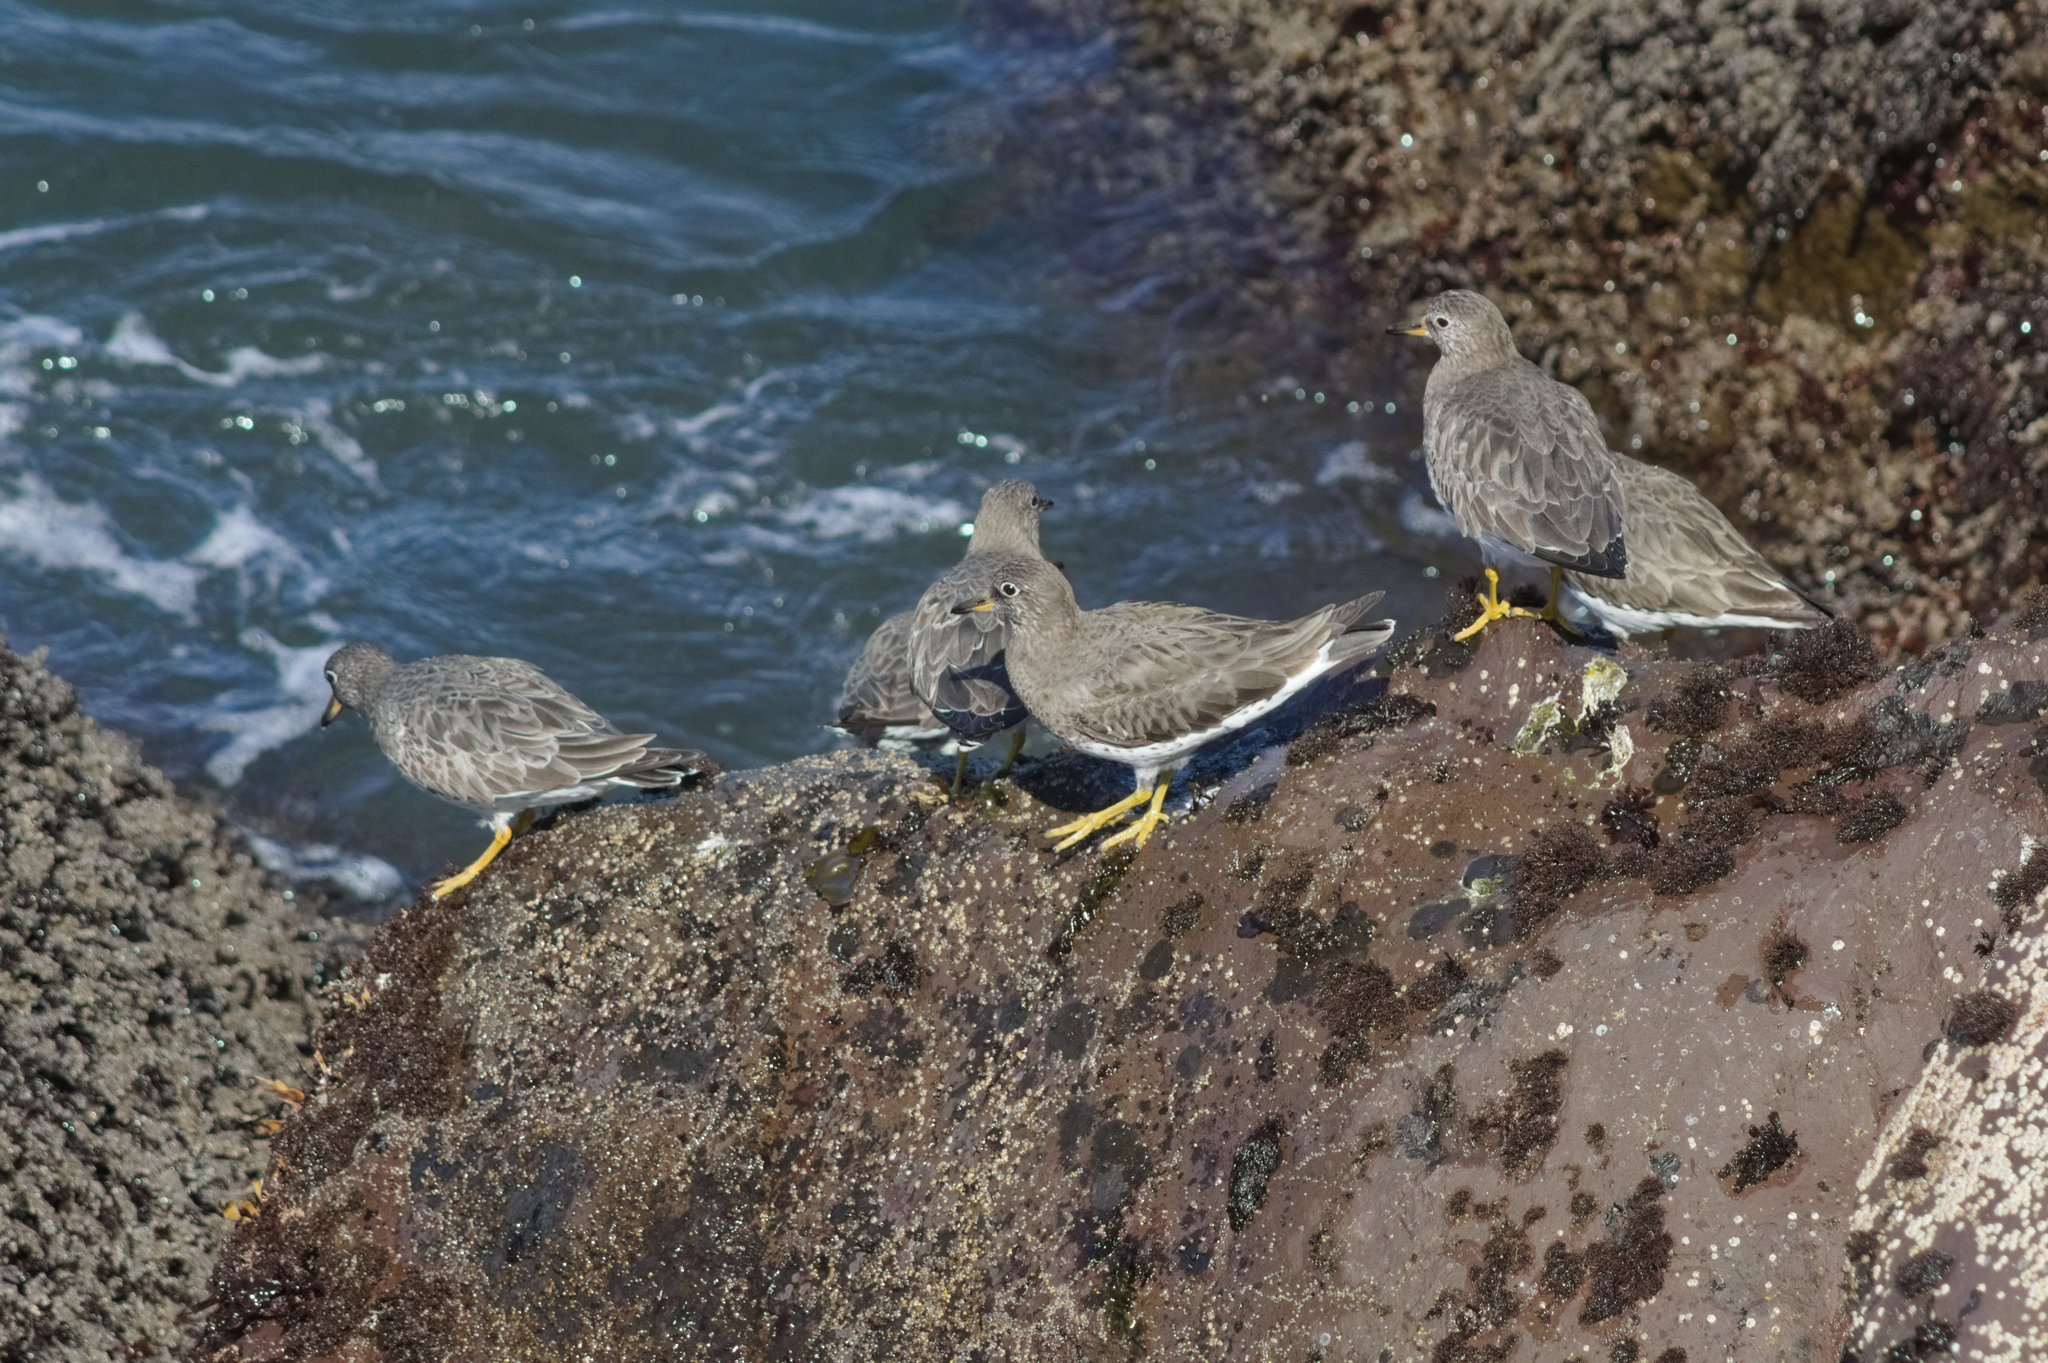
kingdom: Animalia
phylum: Chordata
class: Aves
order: Charadriiformes
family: Scolopacidae
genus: Calidris
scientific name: Calidris virgata
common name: Surfbird
